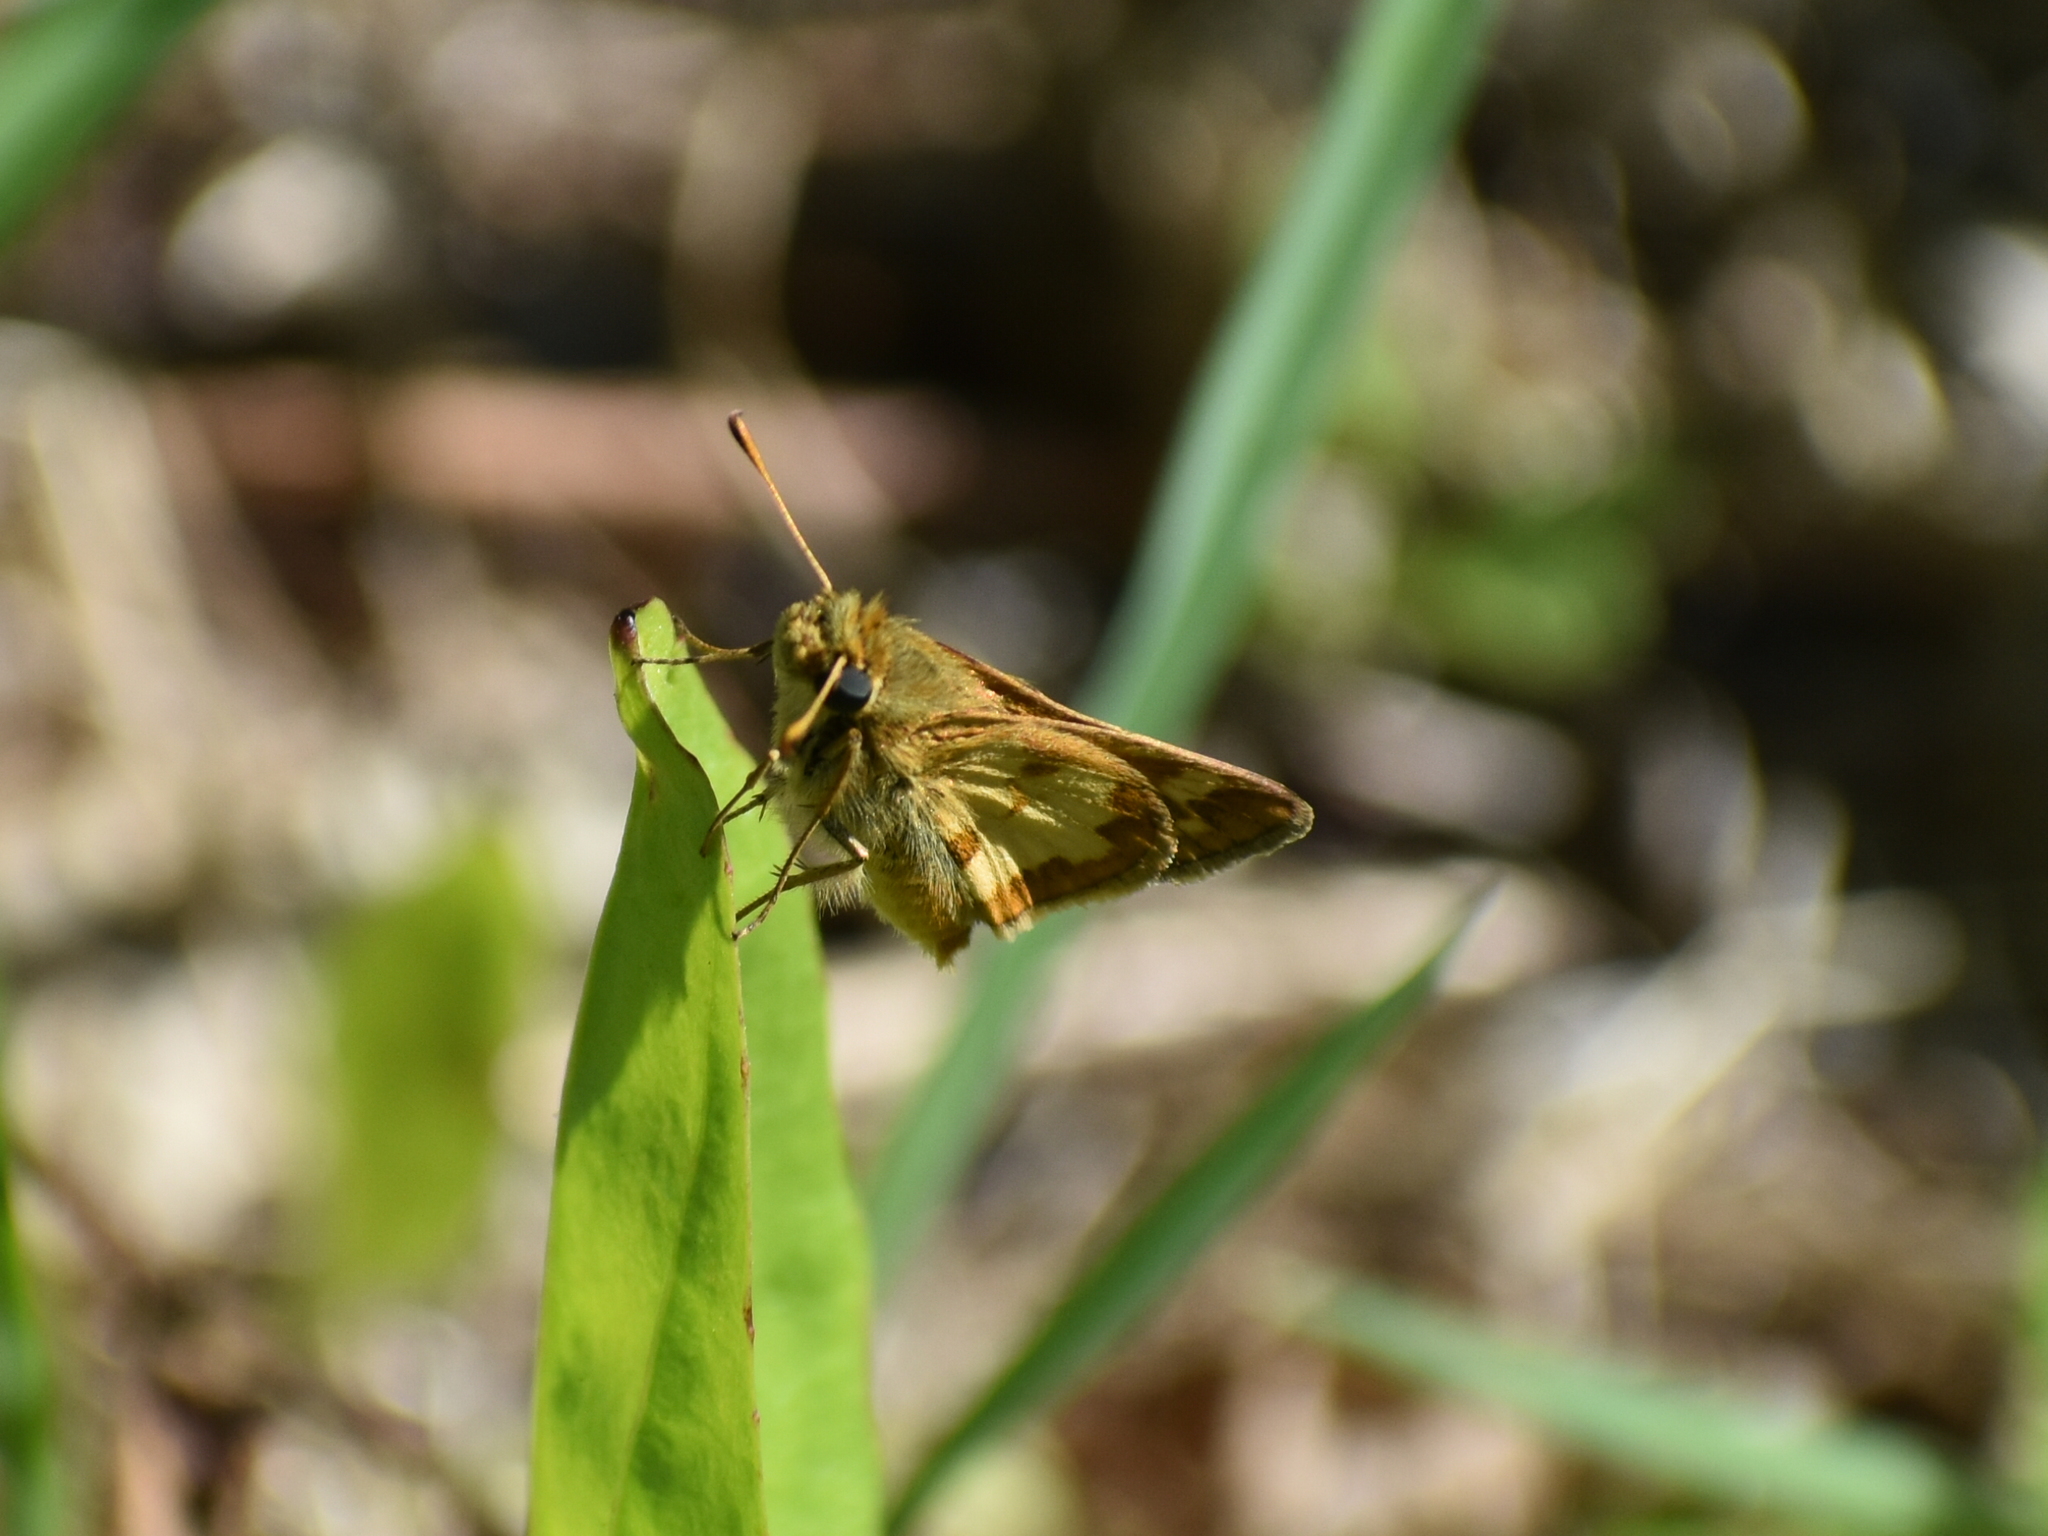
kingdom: Animalia
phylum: Arthropoda
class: Insecta
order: Lepidoptera
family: Hesperiidae
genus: Polites
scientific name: Polites coras
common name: Peck's skipper
